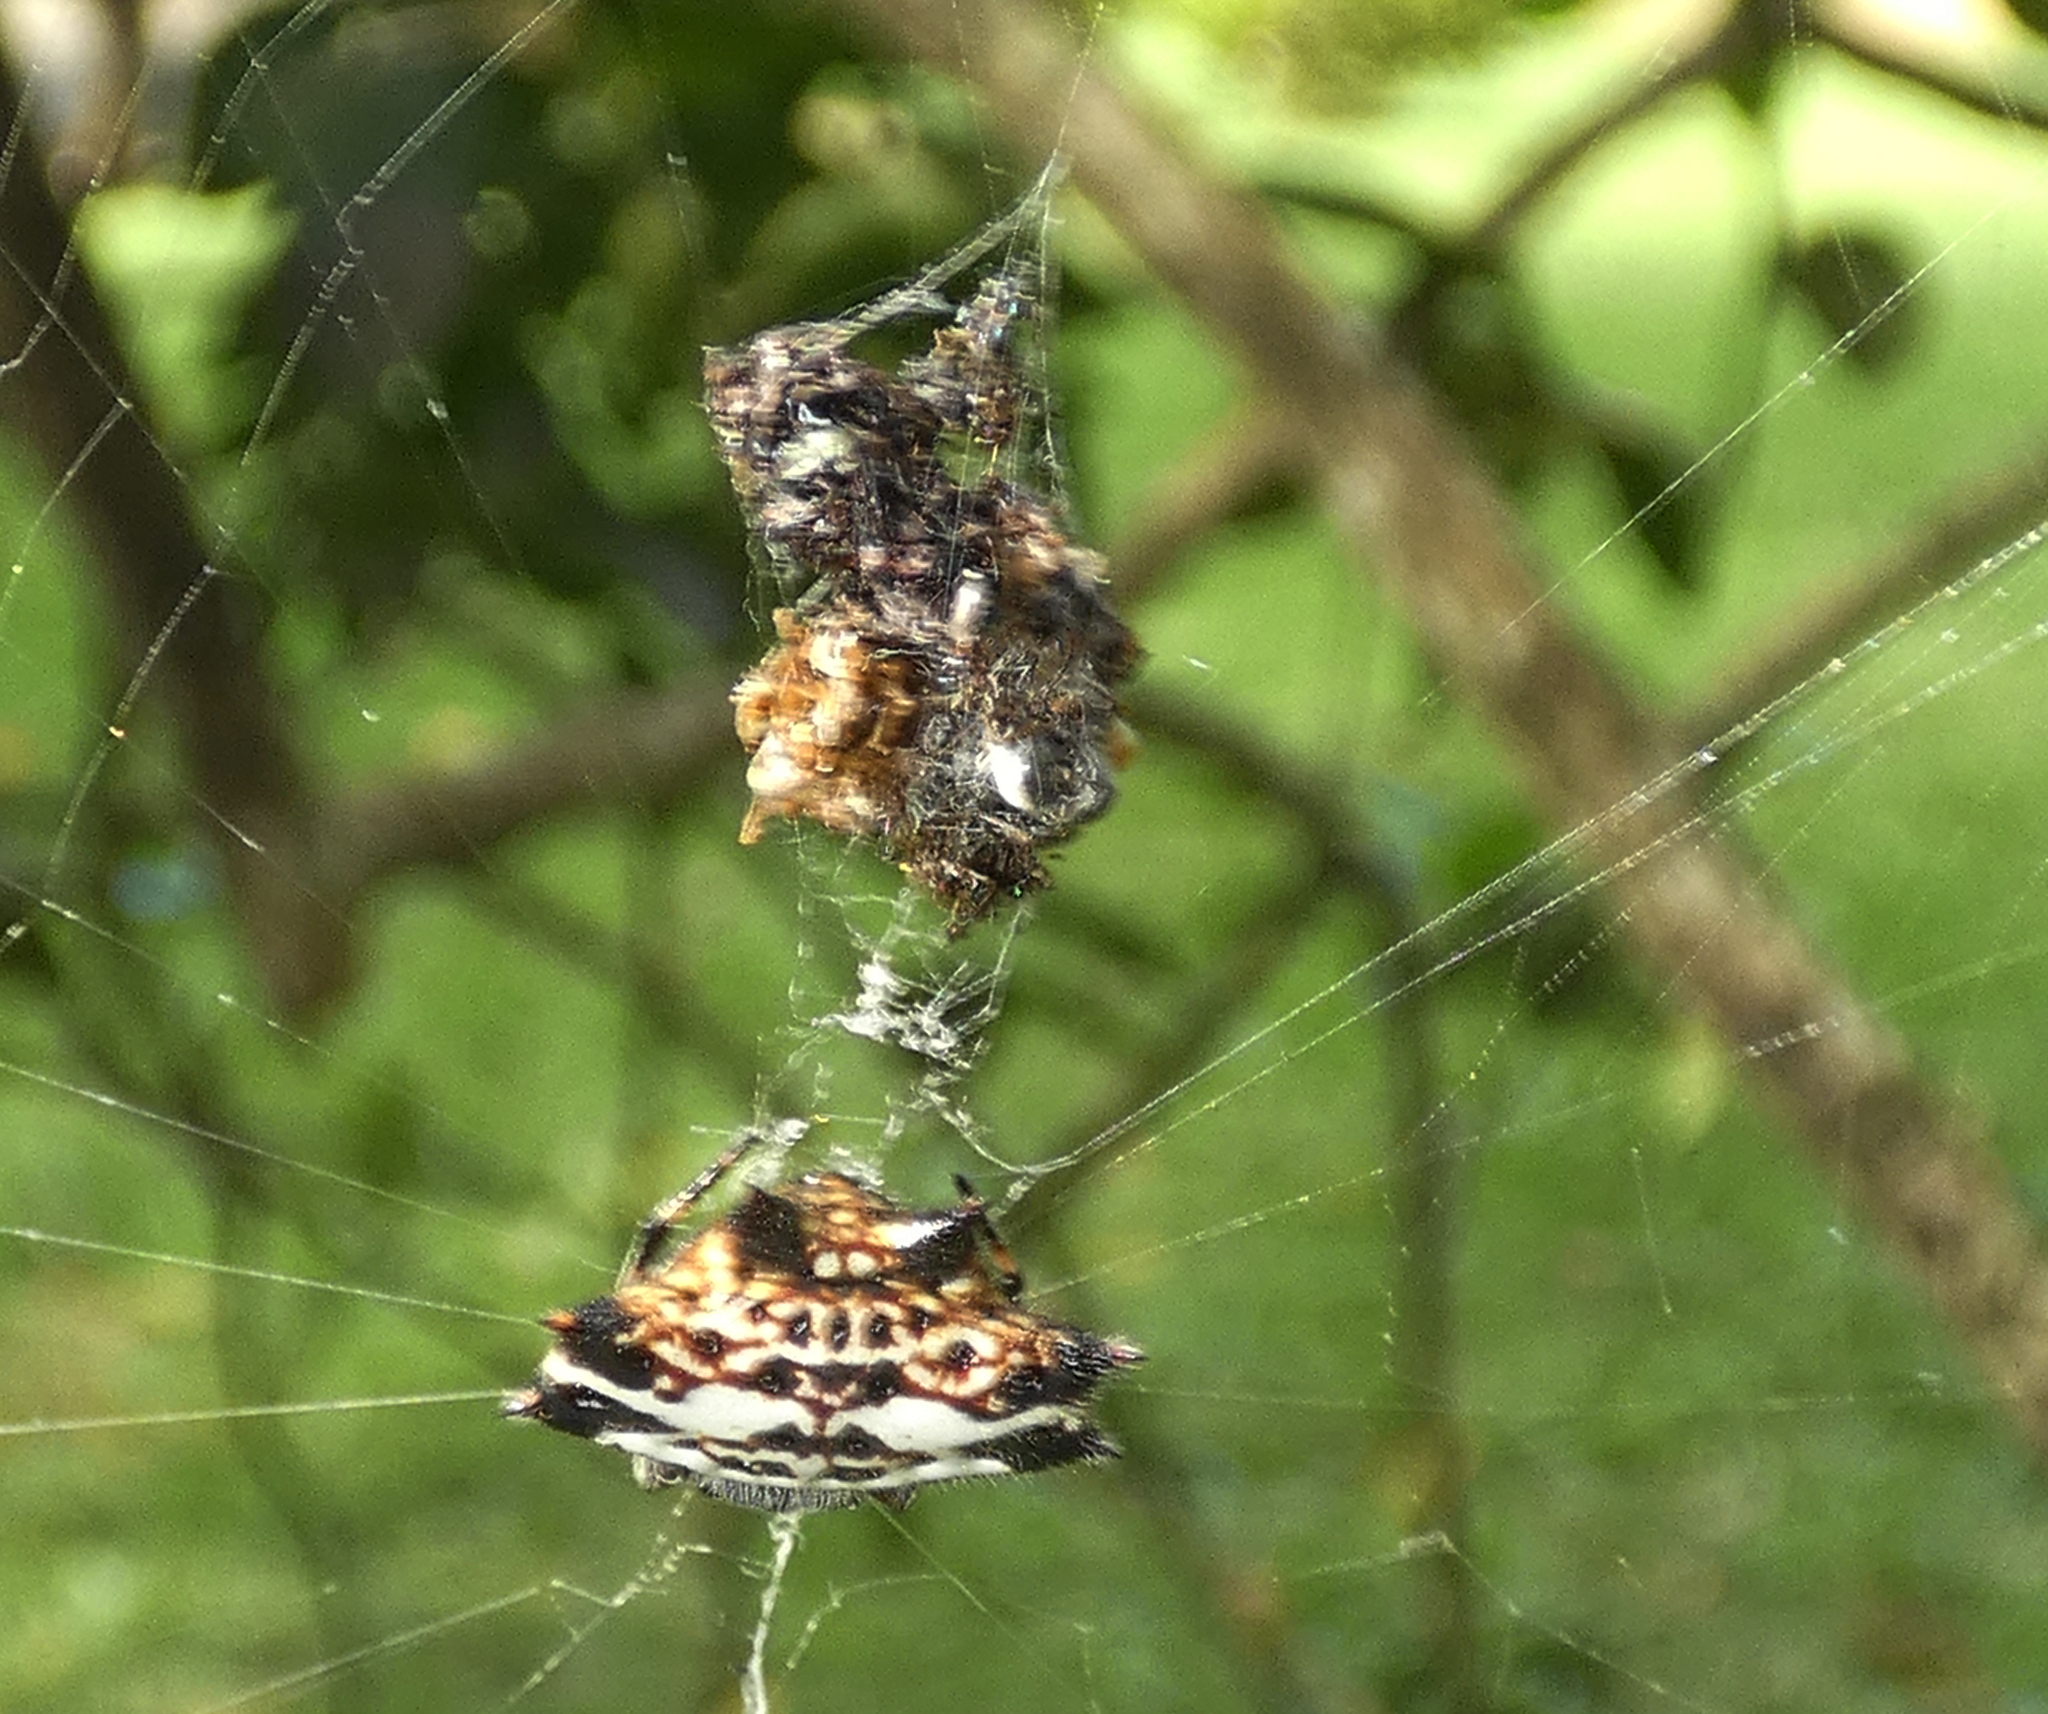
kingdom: Animalia
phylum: Arthropoda
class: Arachnida
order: Araneae
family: Araneidae
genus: Gasteracantha
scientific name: Gasteracantha cancriformis
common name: Orb weavers
